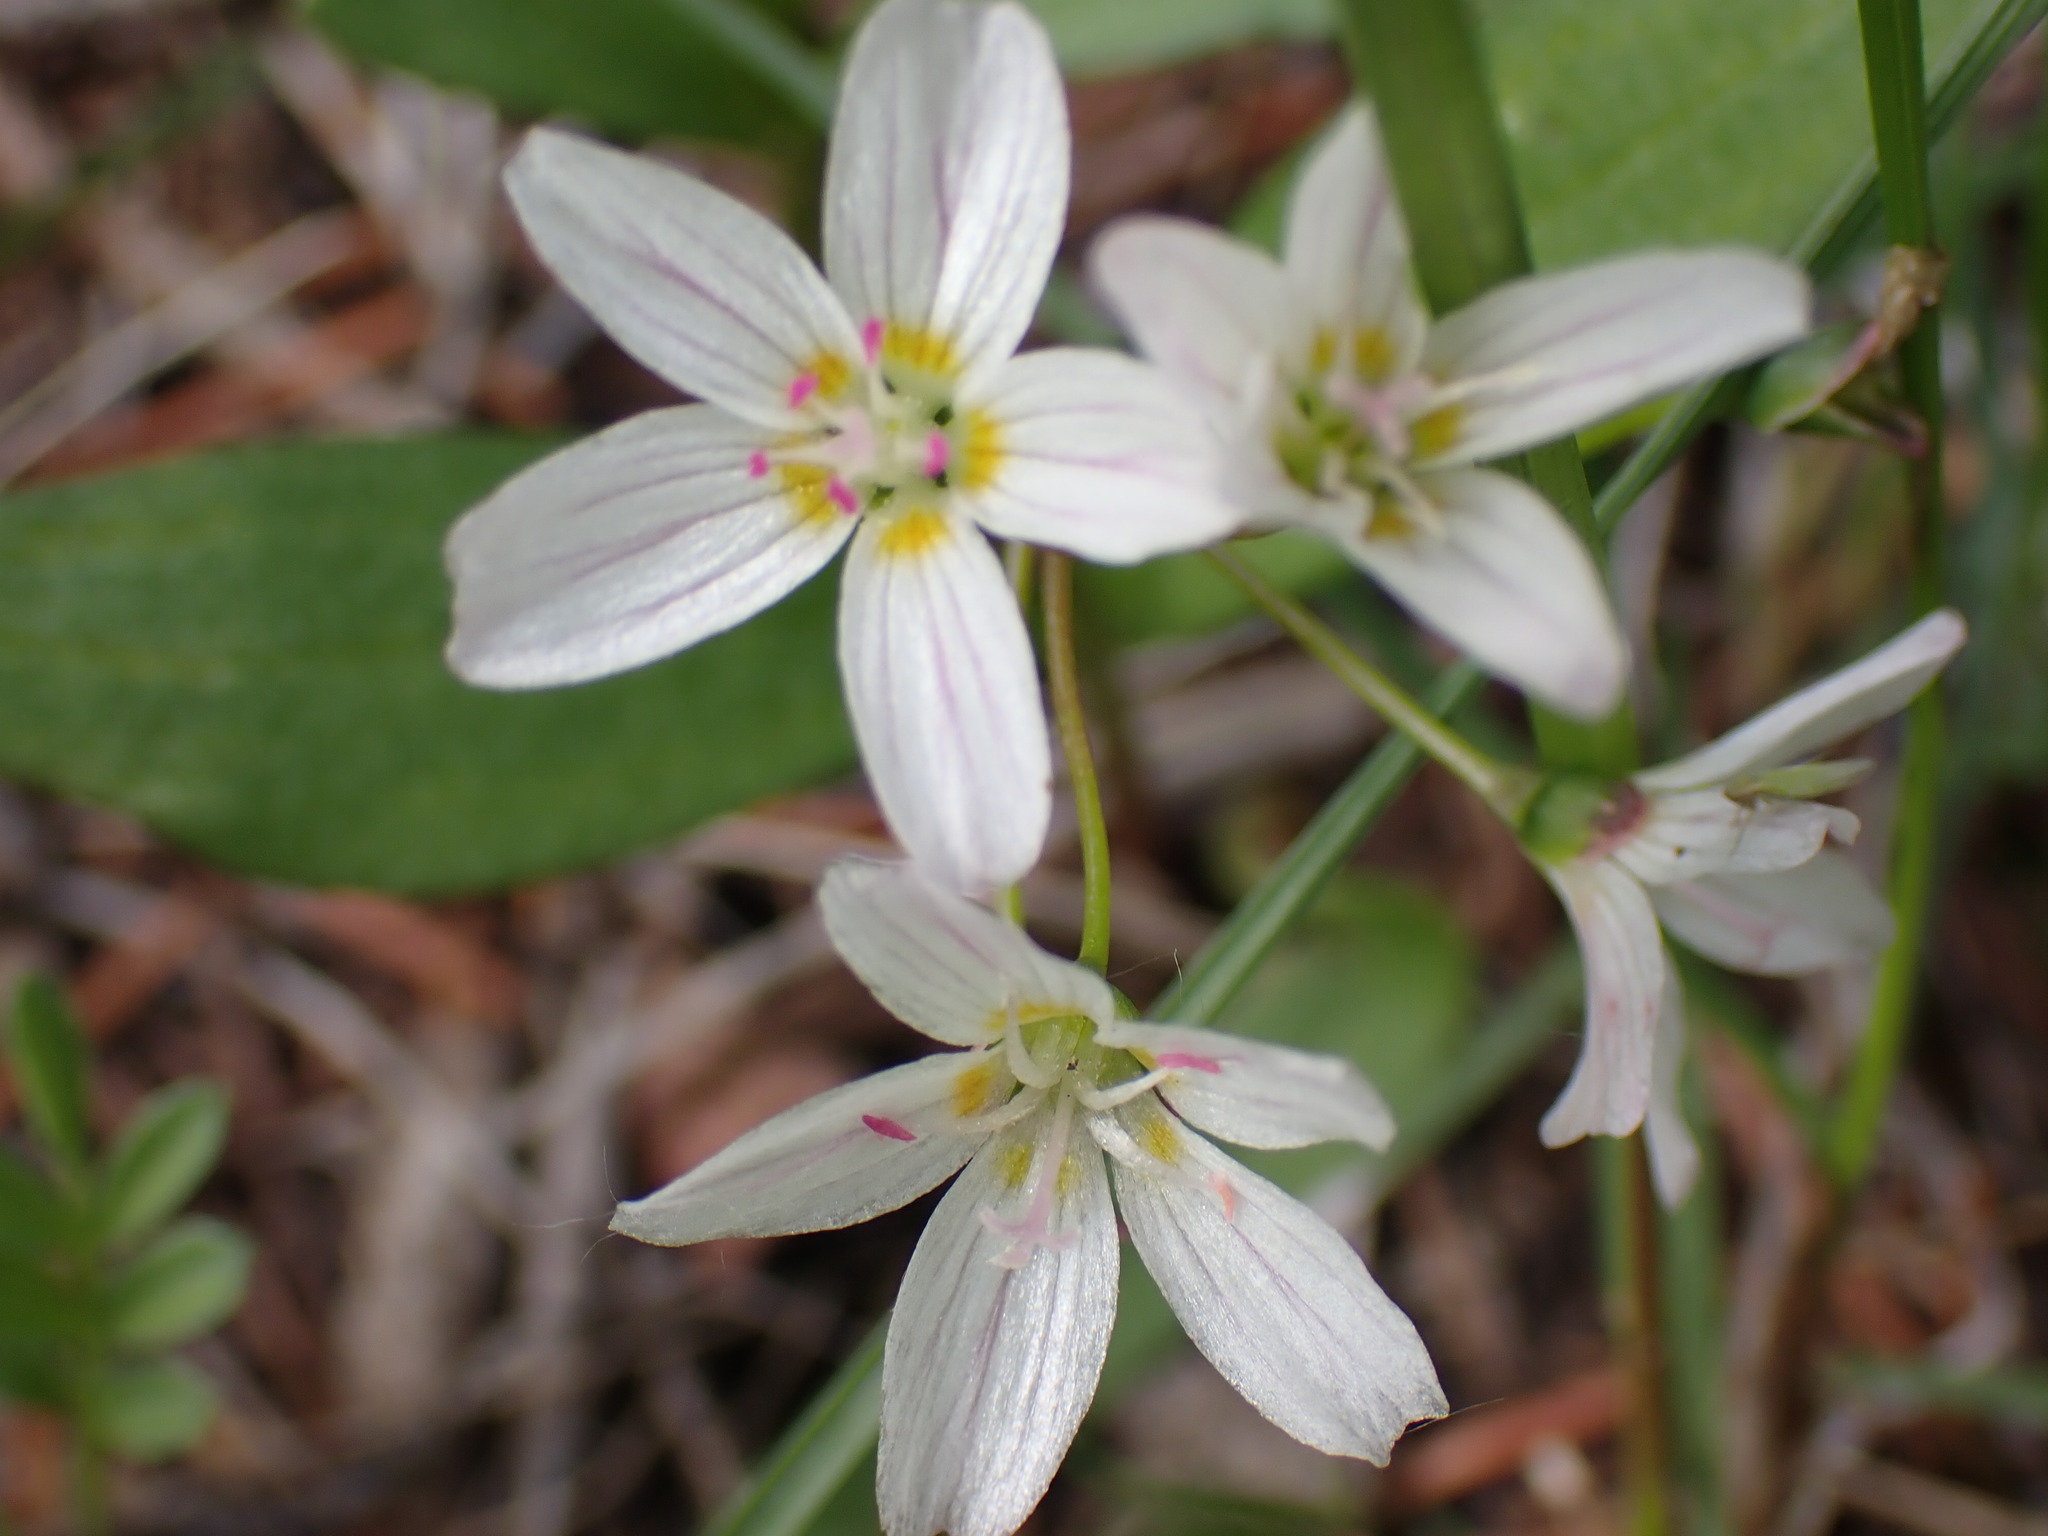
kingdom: Plantae
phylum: Tracheophyta
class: Magnoliopsida
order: Caryophyllales
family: Montiaceae
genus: Claytonia
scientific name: Claytonia lanceolata
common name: Western spring-beauty
